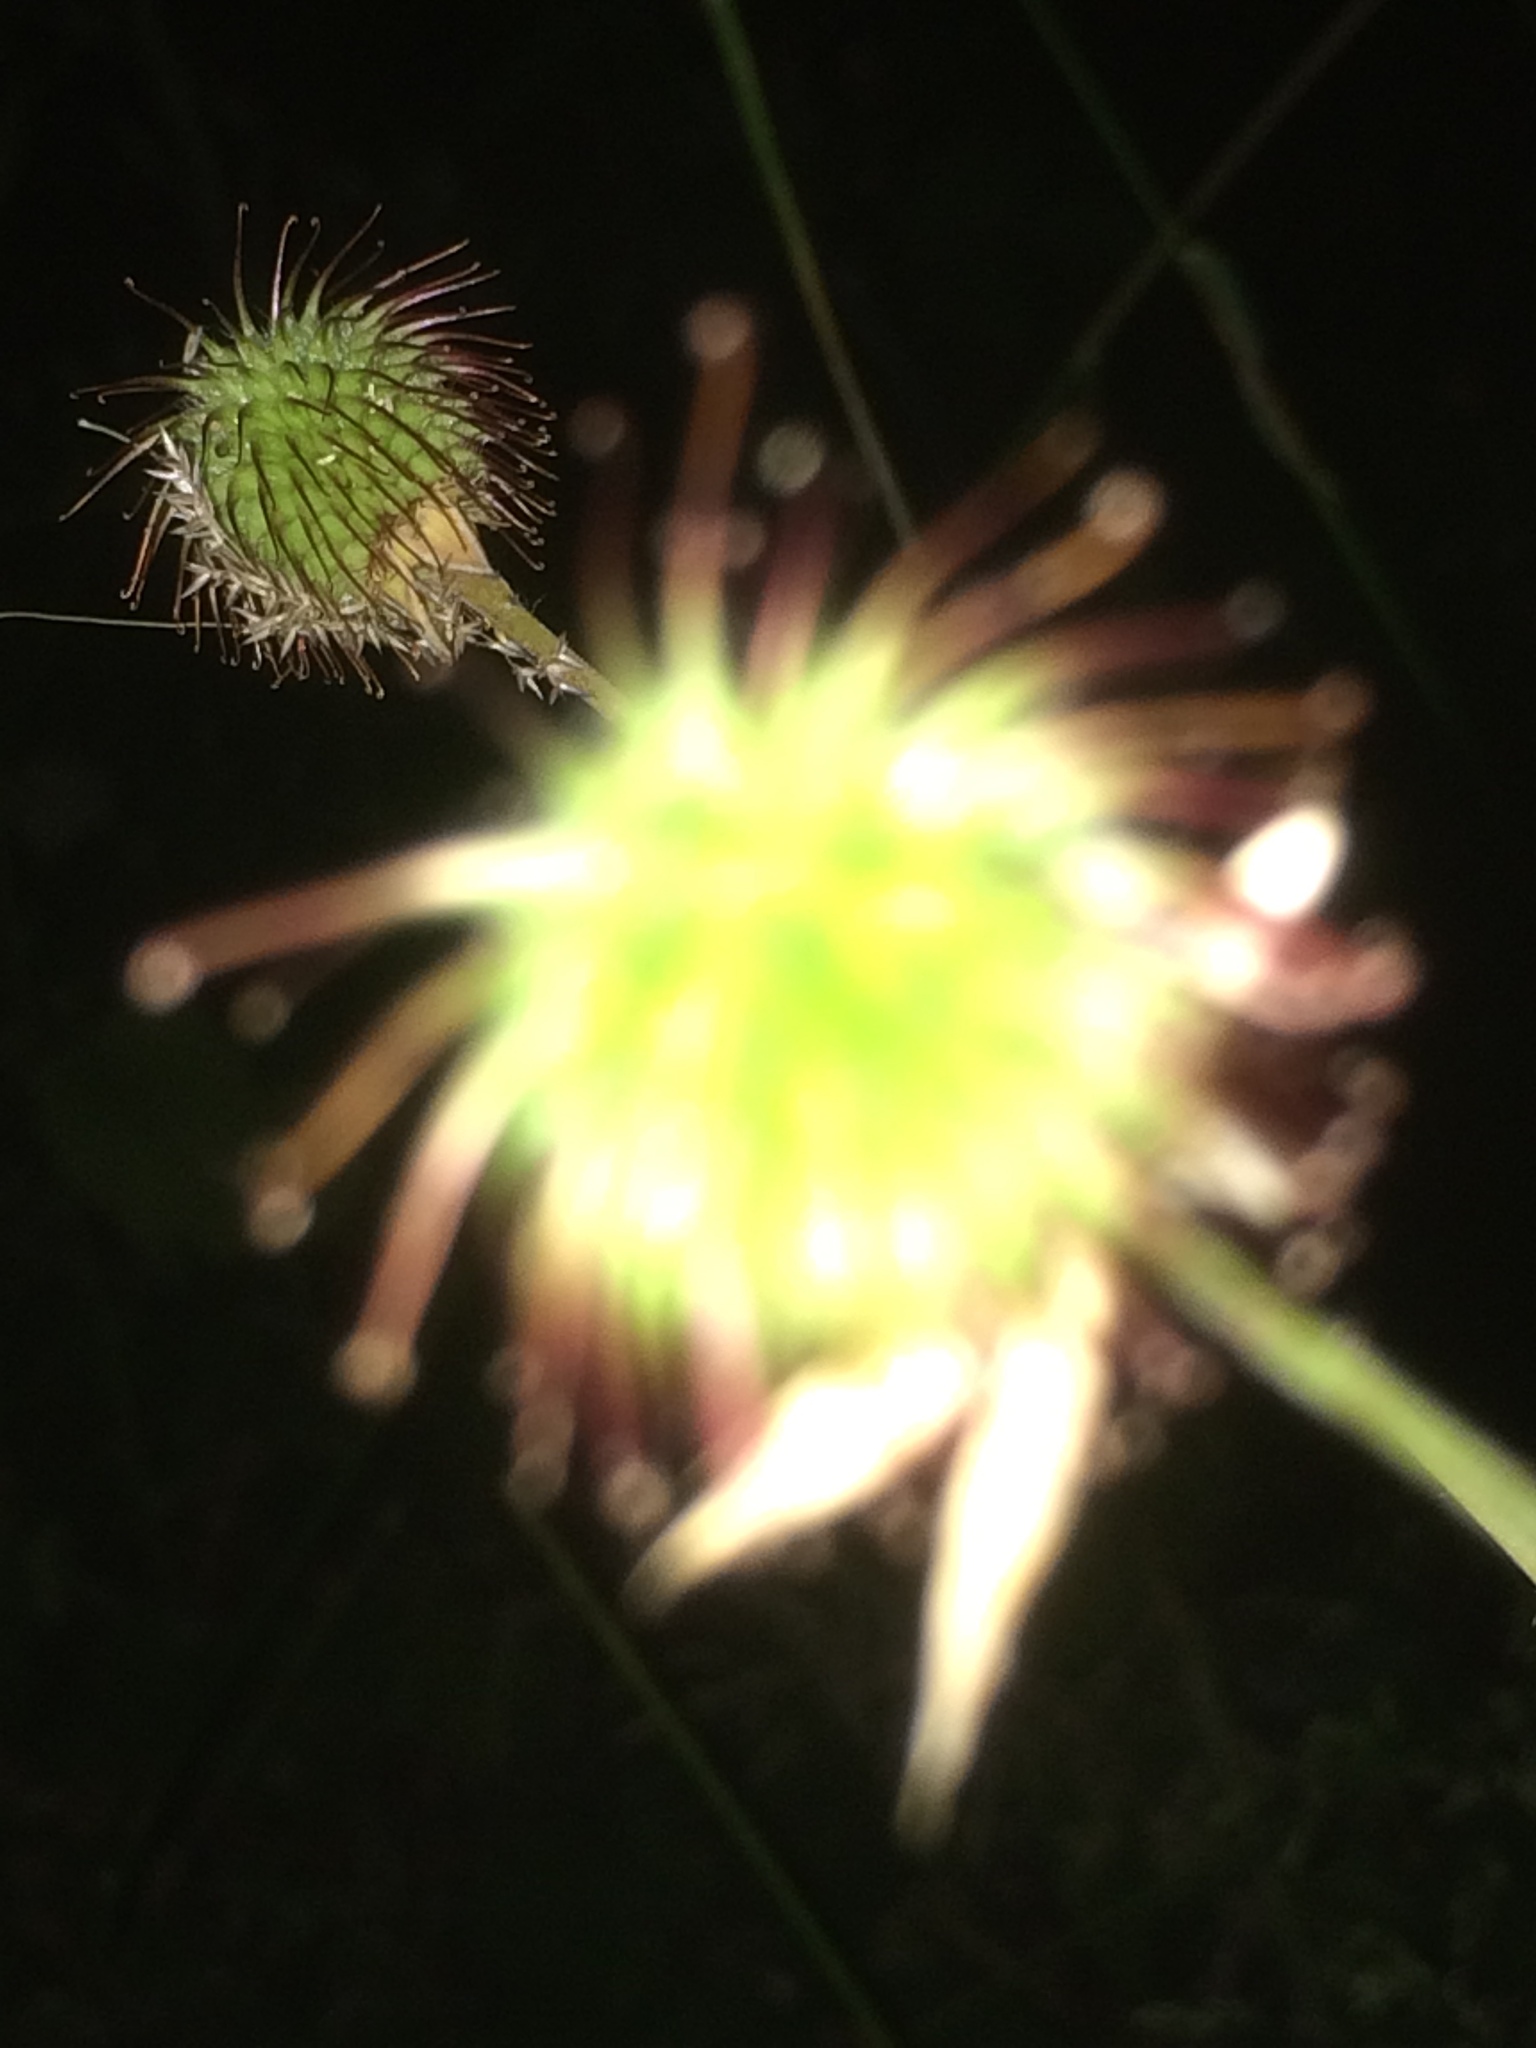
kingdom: Plantae
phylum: Tracheophyta
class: Magnoliopsida
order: Rosales
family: Rosaceae
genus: Geum
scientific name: Geum macrophyllum
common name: Large-leaved avens
